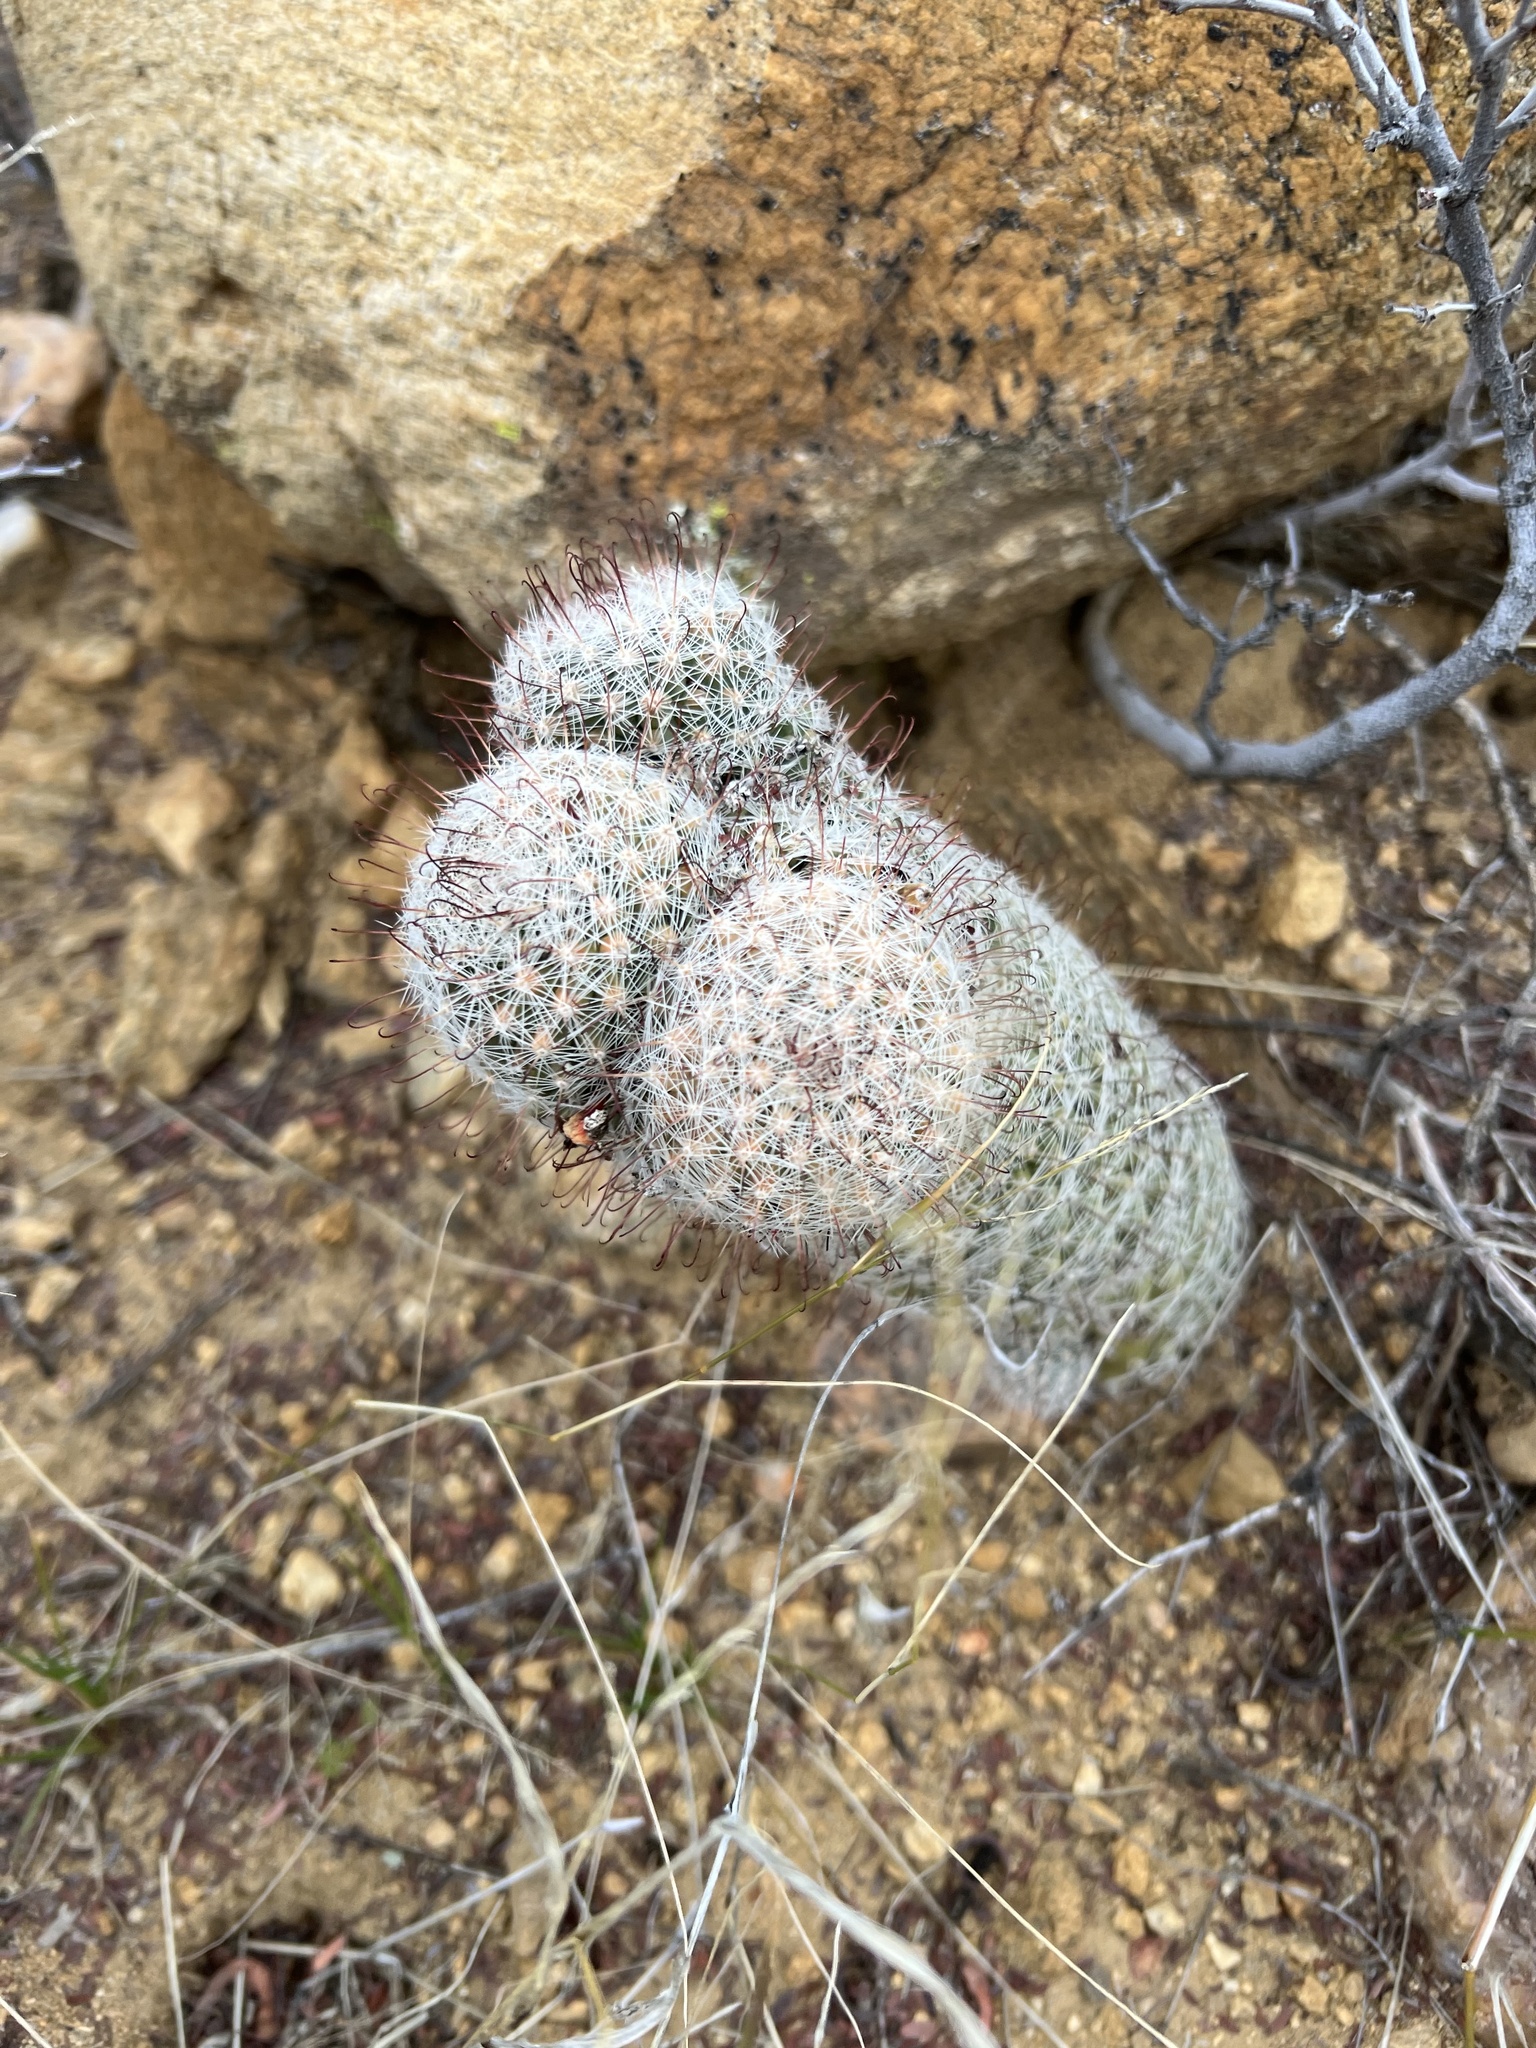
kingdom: Plantae
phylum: Tracheophyta
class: Magnoliopsida
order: Caryophyllales
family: Cactaceae
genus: Cochemiea
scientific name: Cochemiea grahamii
